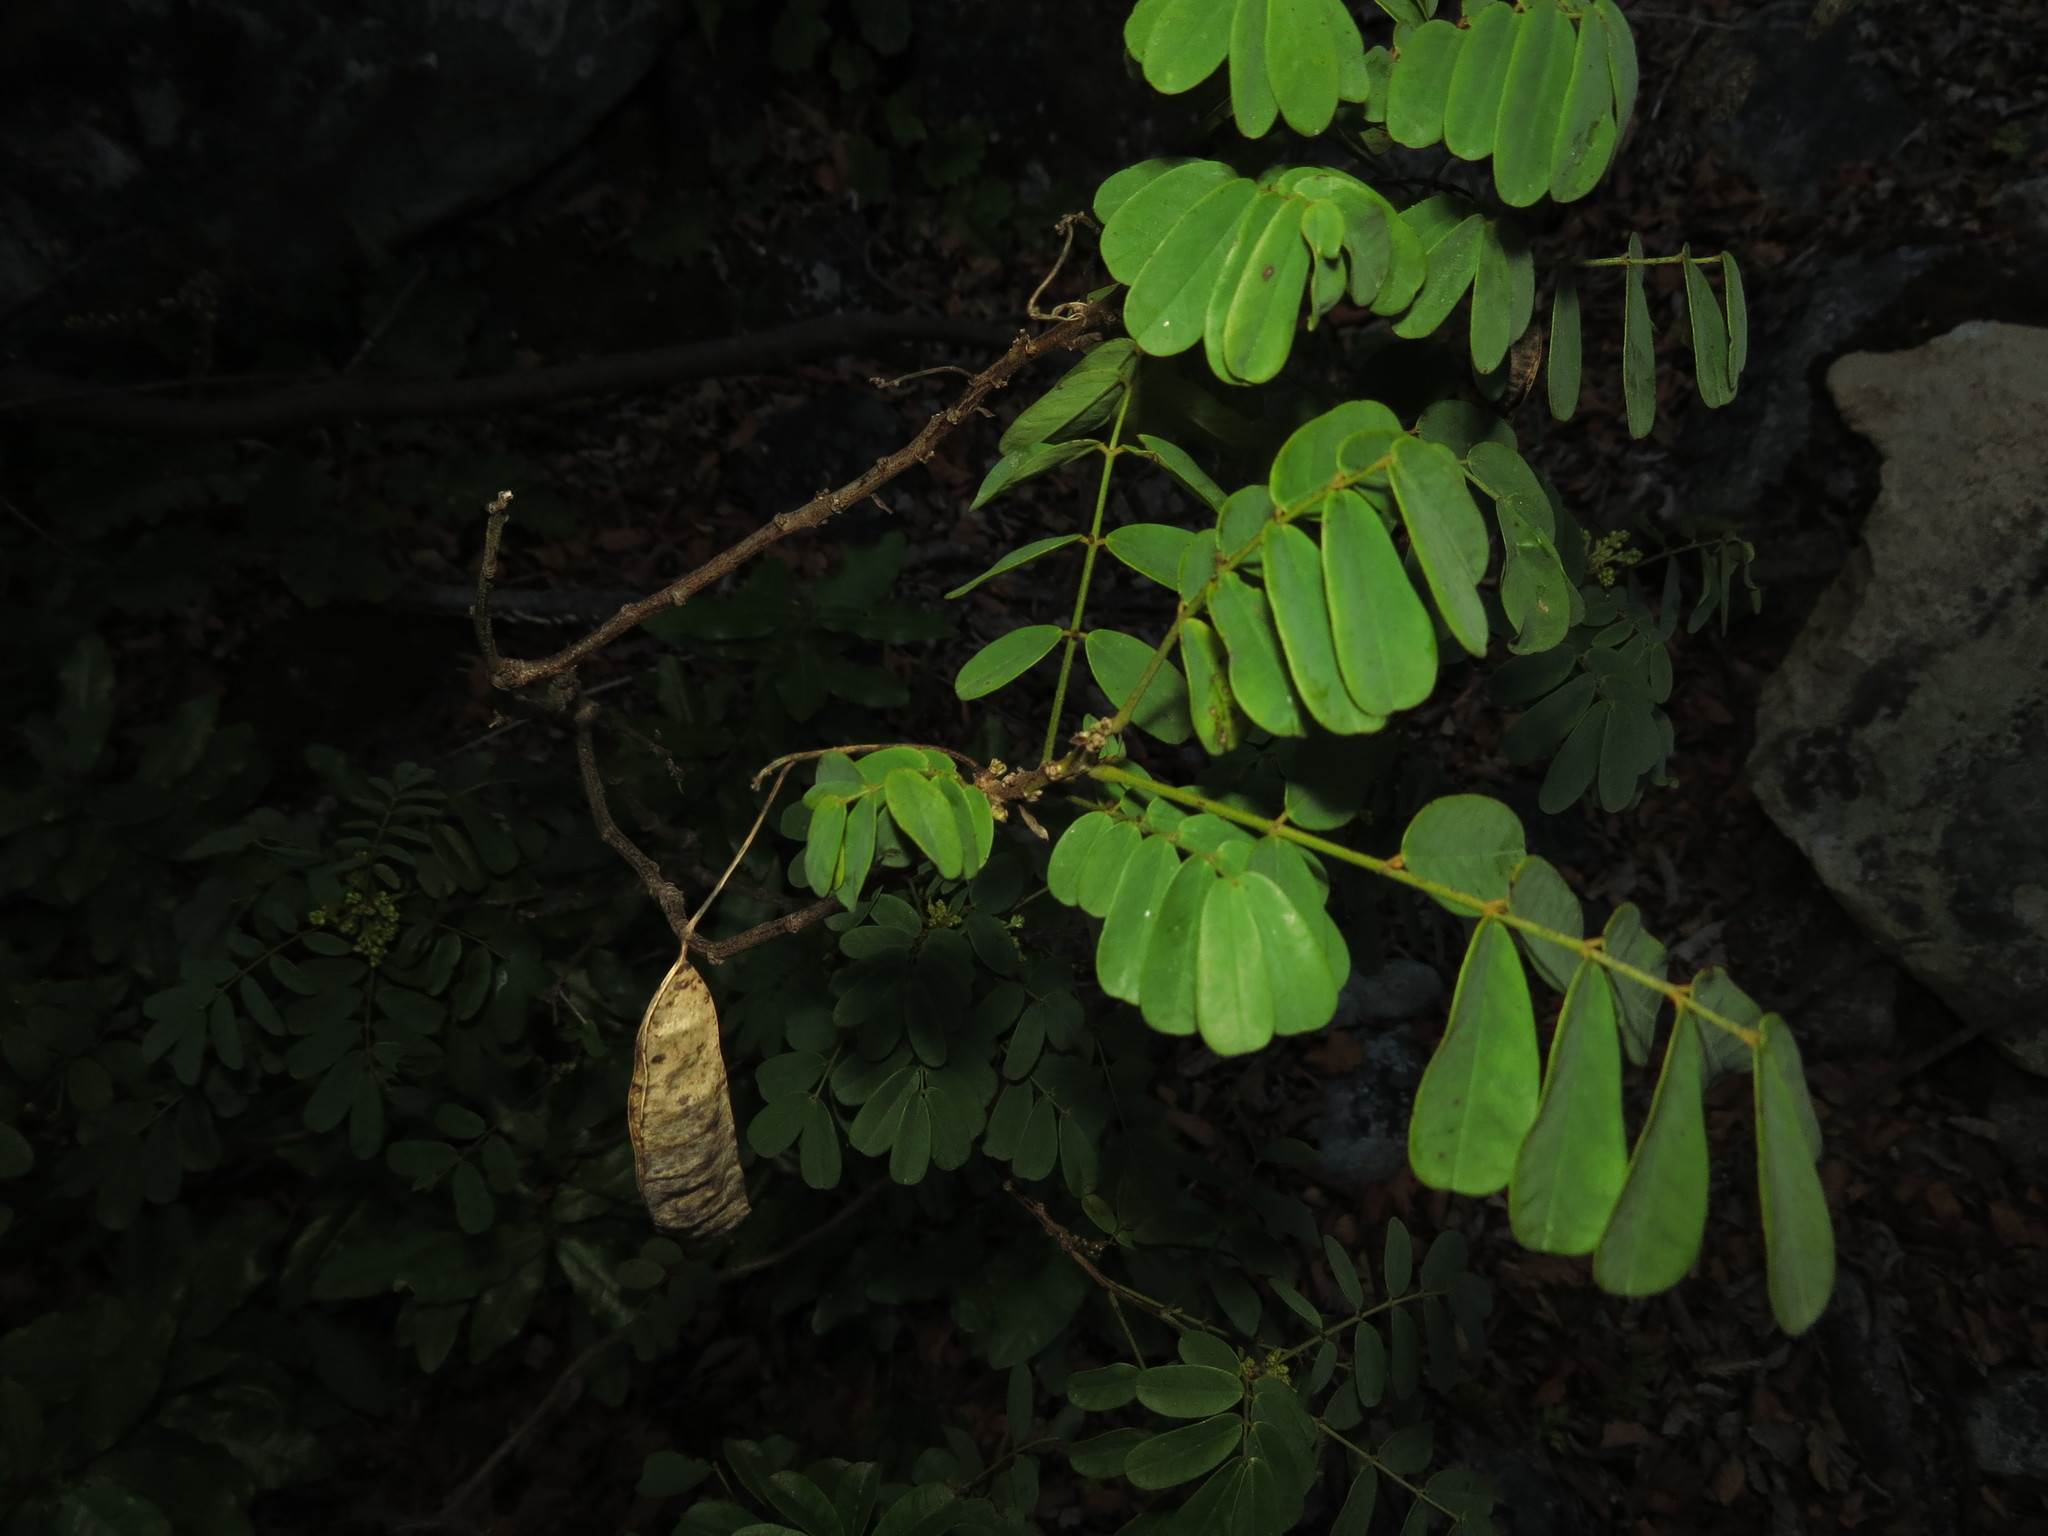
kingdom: Plantae
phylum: Tracheophyta
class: Magnoliopsida
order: Fabales
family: Fabaceae
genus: Senna
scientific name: Senna cruckshanksii
